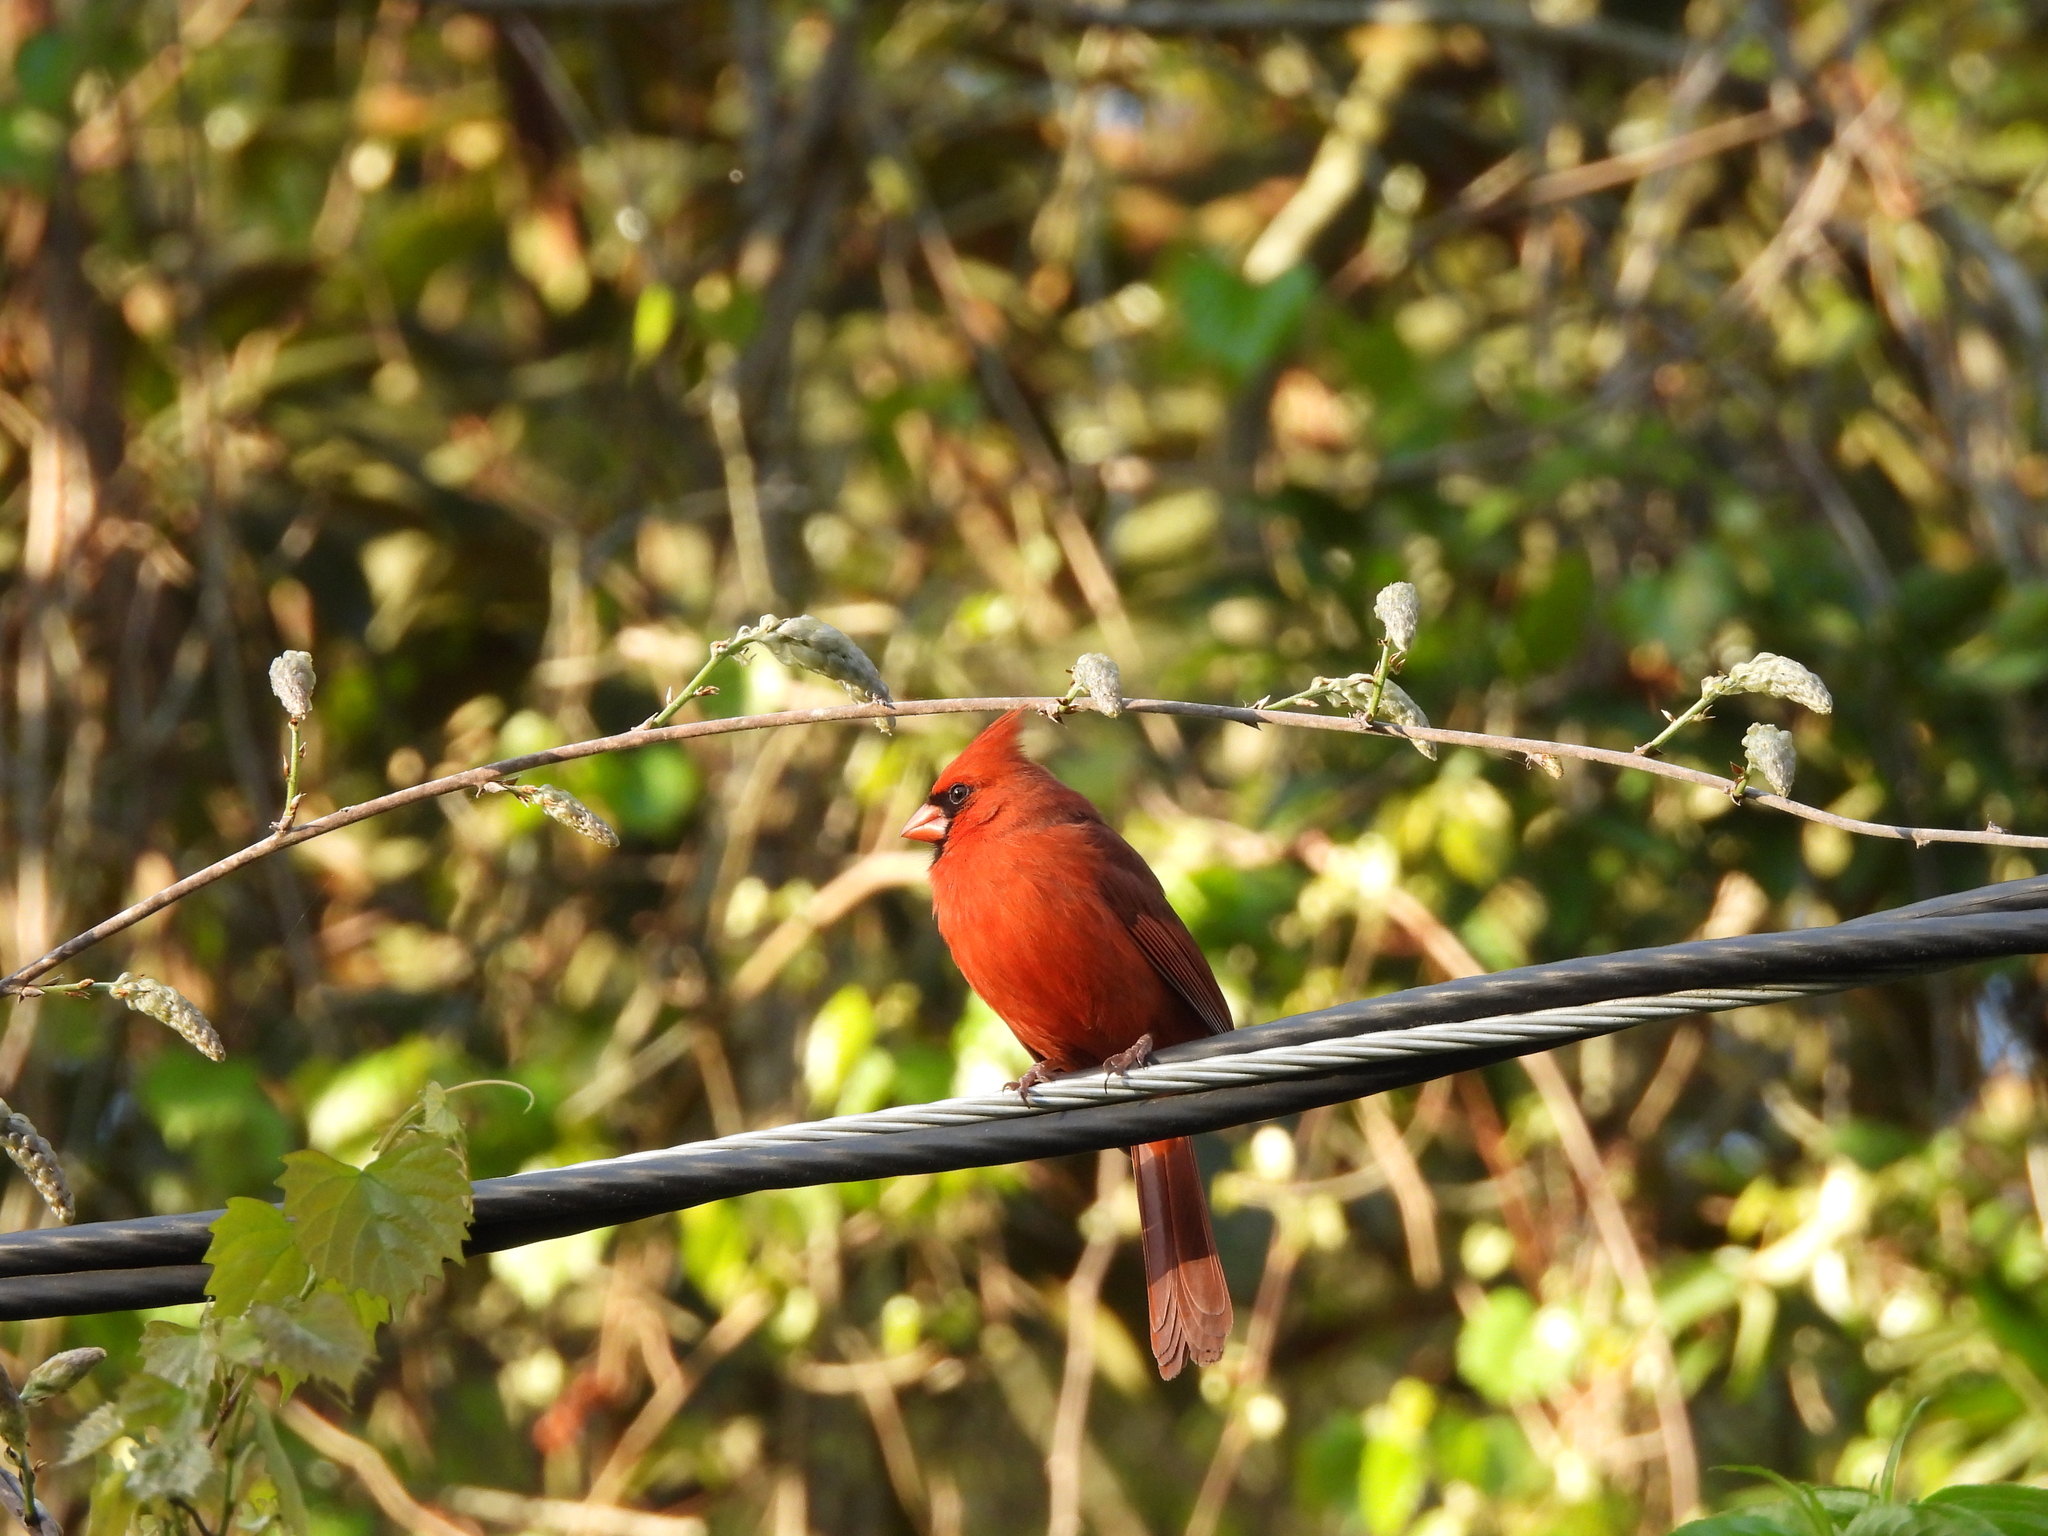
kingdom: Animalia
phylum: Chordata
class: Aves
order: Passeriformes
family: Cardinalidae
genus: Cardinalis
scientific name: Cardinalis cardinalis
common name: Northern cardinal
